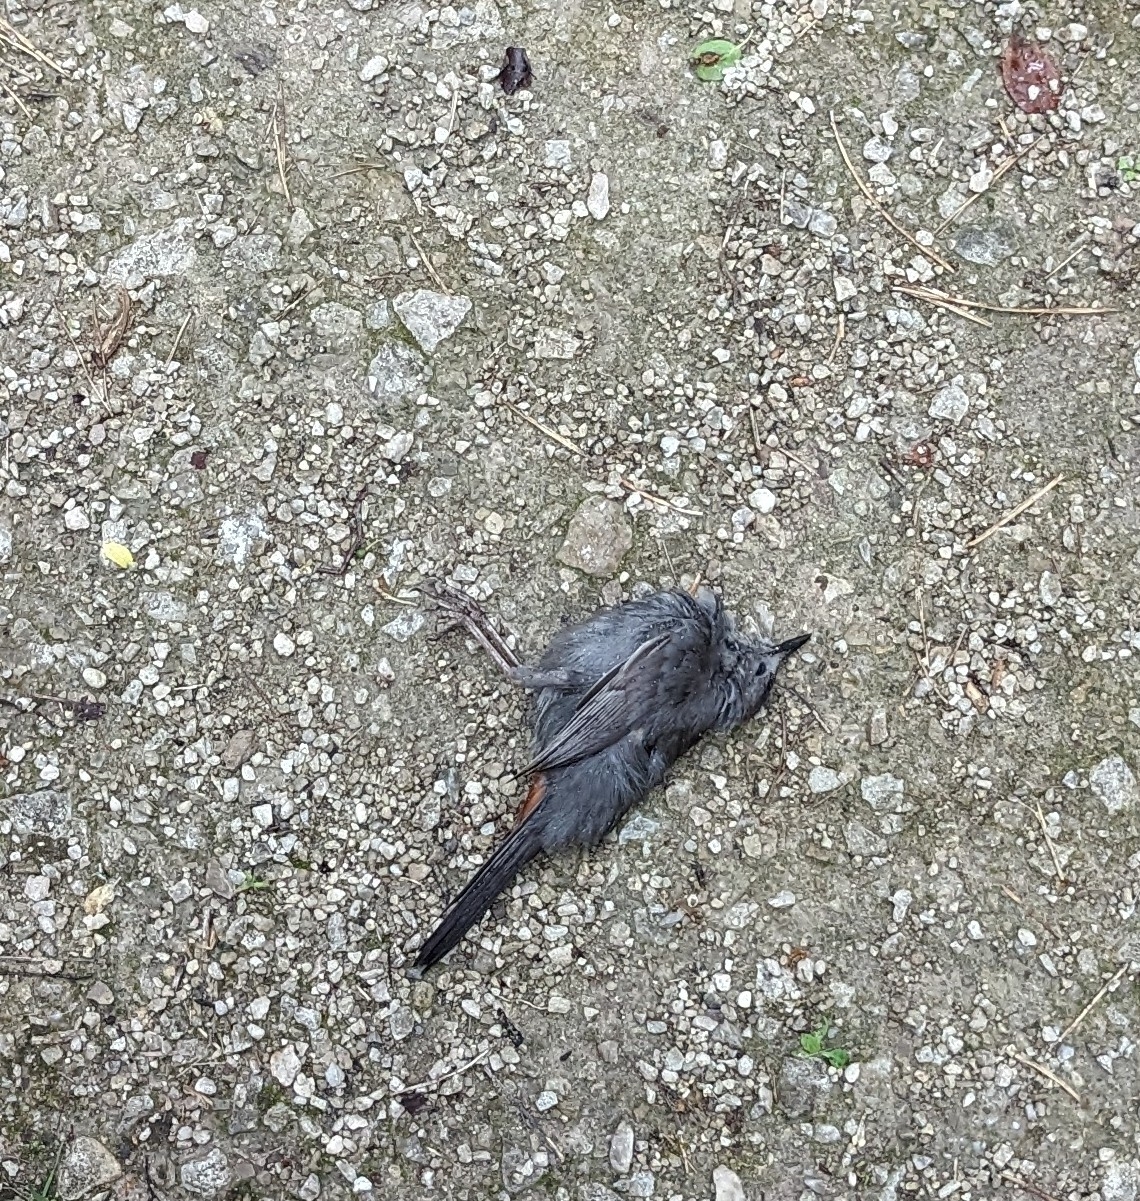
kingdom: Animalia
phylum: Chordata
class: Aves
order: Passeriformes
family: Mimidae
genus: Dumetella
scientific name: Dumetella carolinensis
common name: Gray catbird
